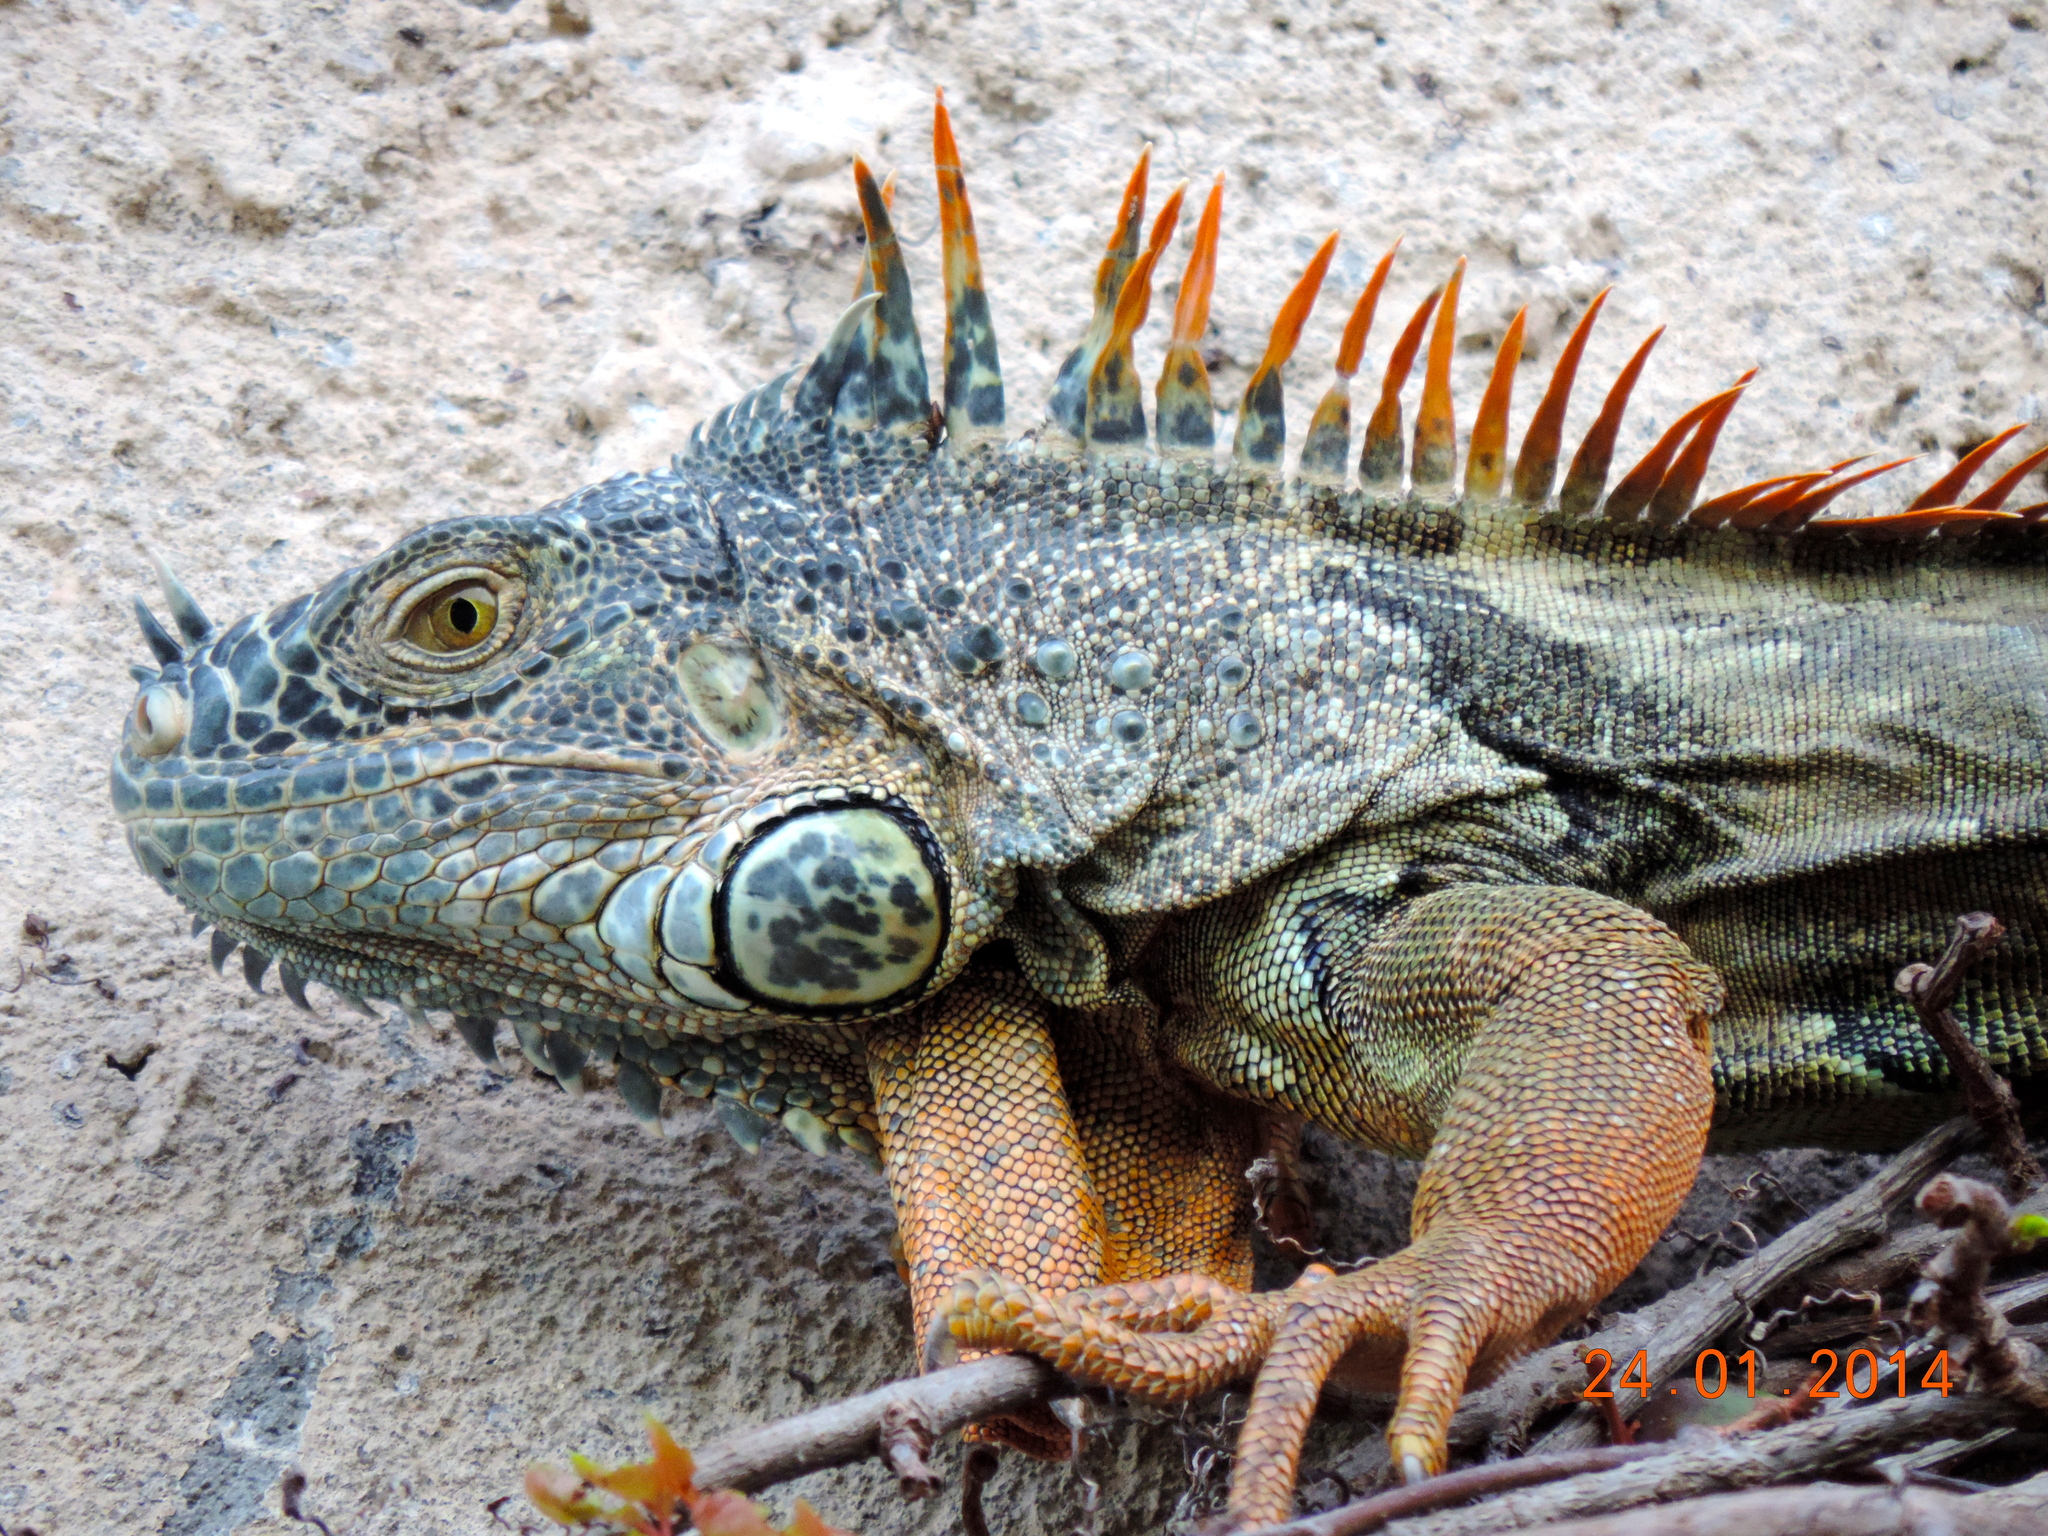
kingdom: Animalia
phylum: Chordata
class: Squamata
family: Iguanidae
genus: Iguana
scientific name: Iguana iguana
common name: Green iguana
